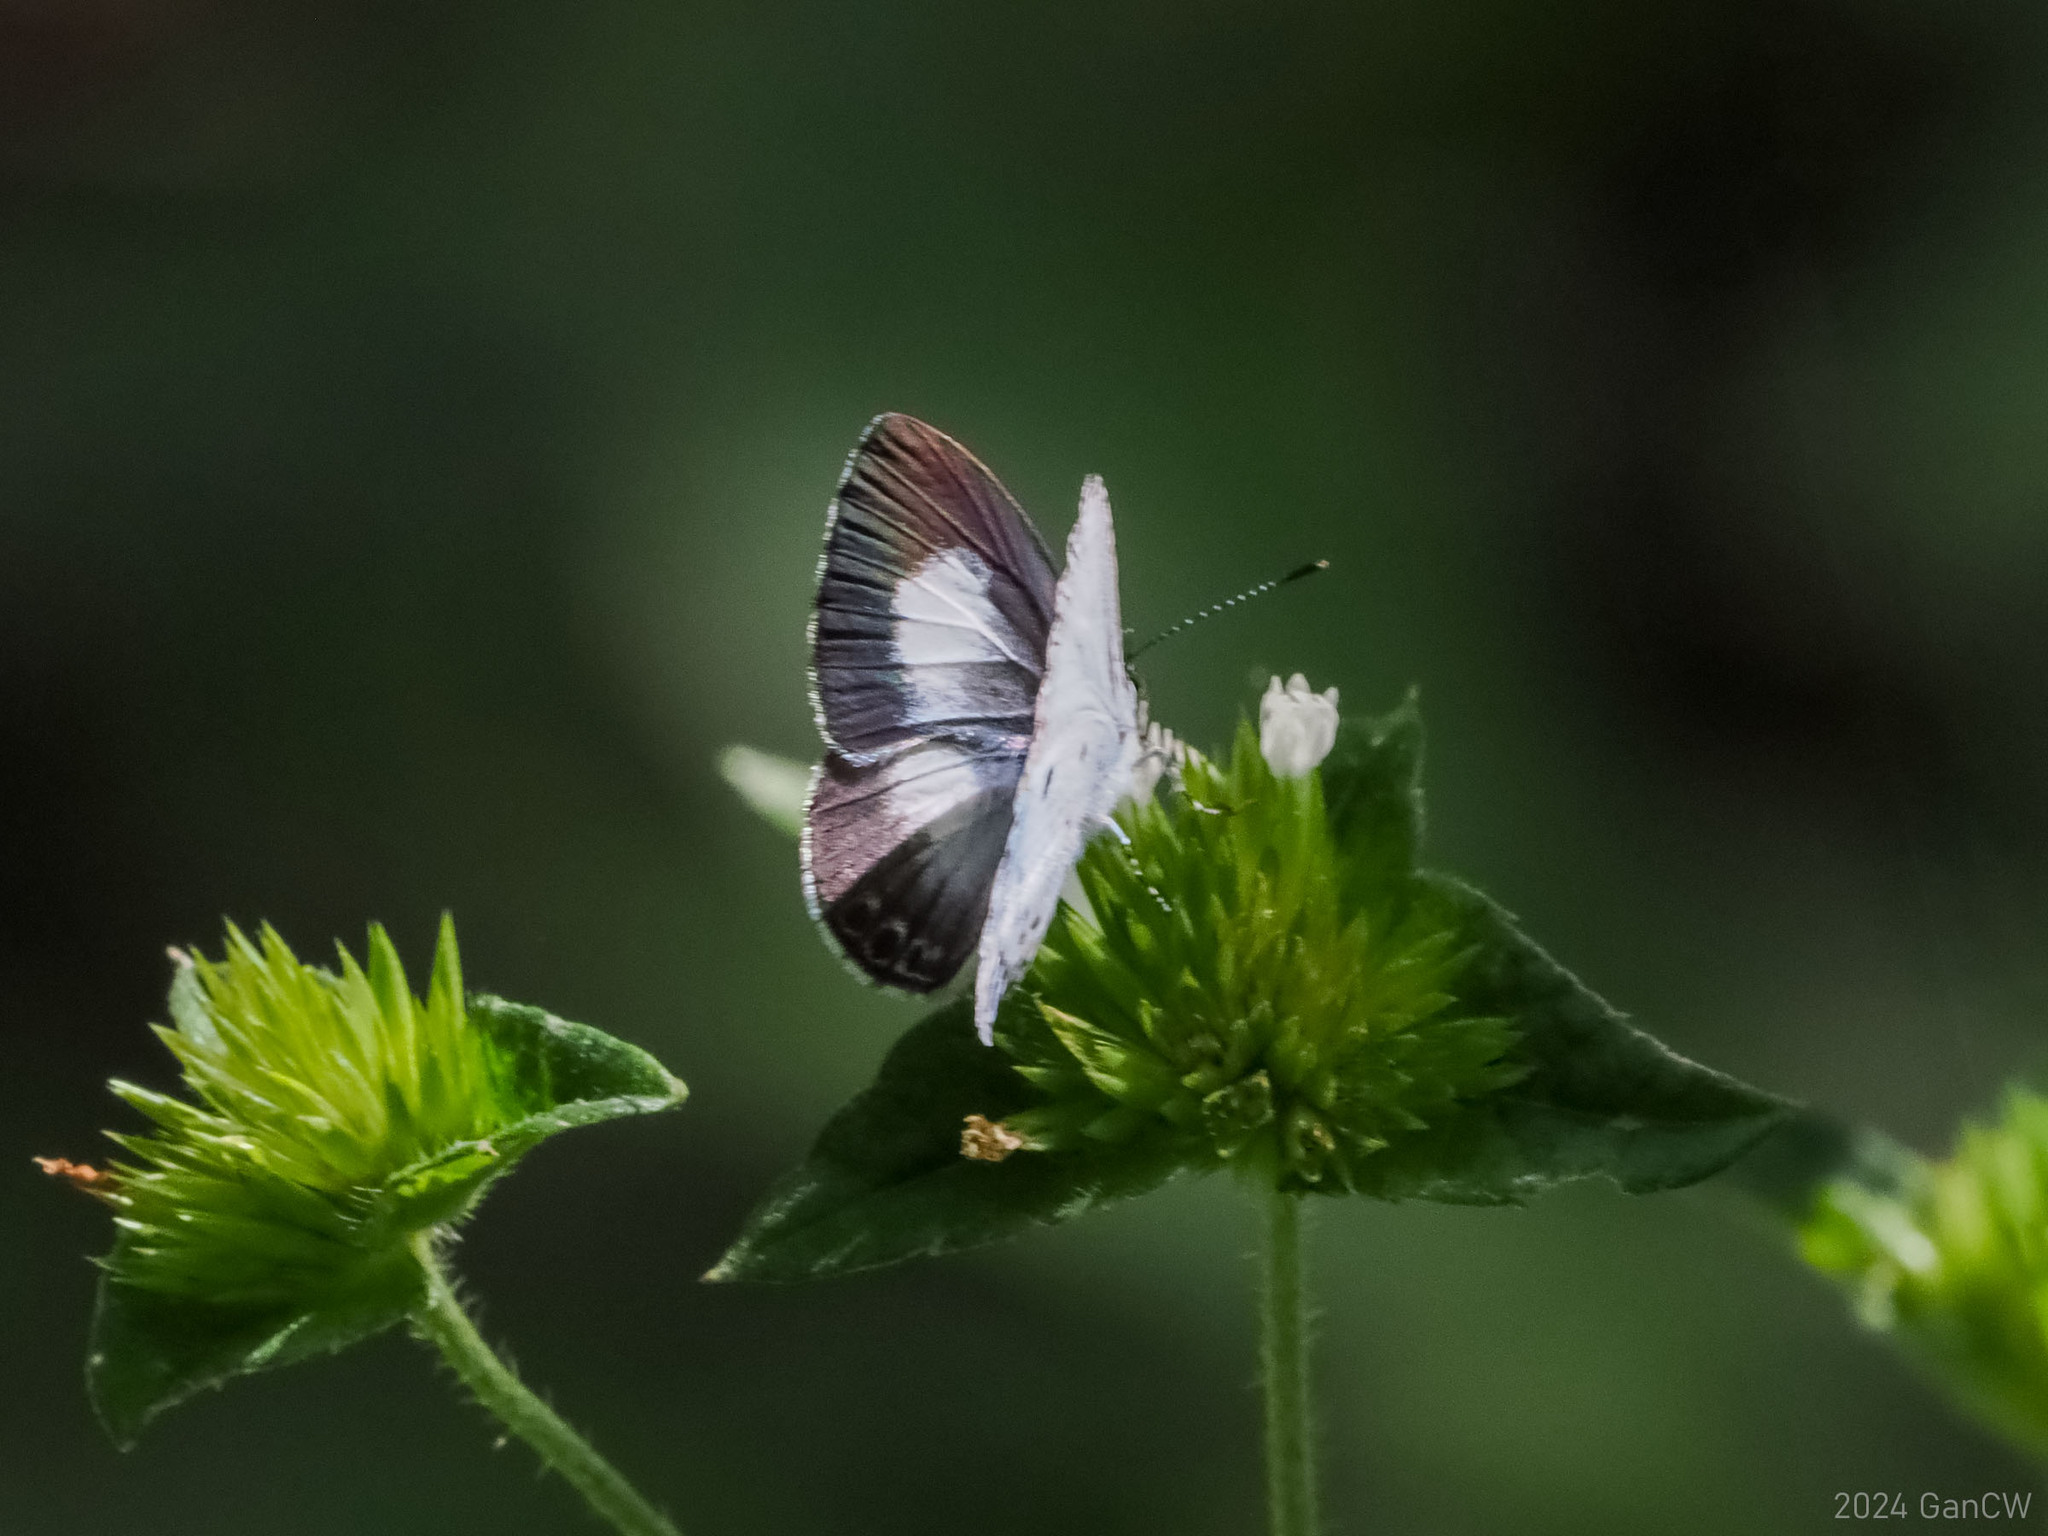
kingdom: Animalia
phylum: Arthropoda
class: Insecta
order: Lepidoptera
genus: Sancterila
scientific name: Sancterila
